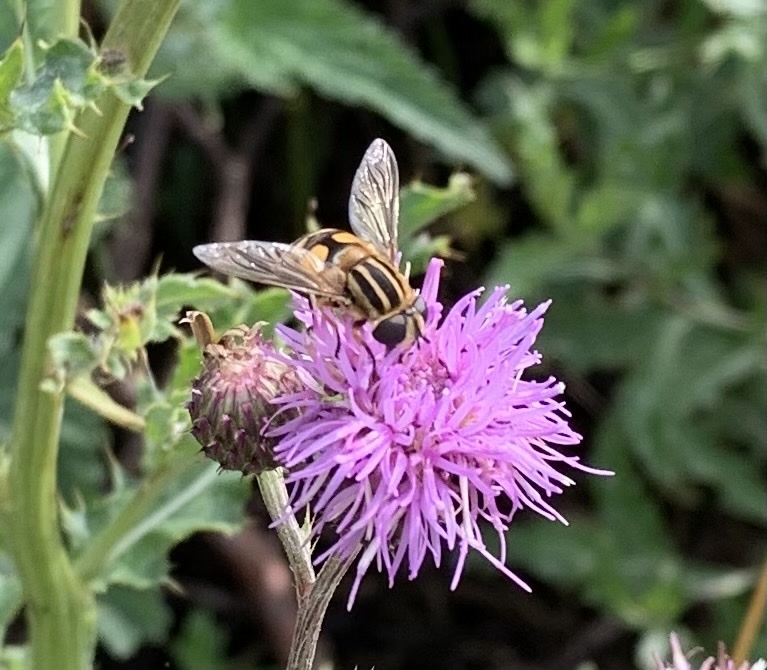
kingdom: Animalia
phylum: Arthropoda
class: Insecta
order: Diptera
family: Syrphidae
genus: Helophilus
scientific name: Helophilus hybridus
